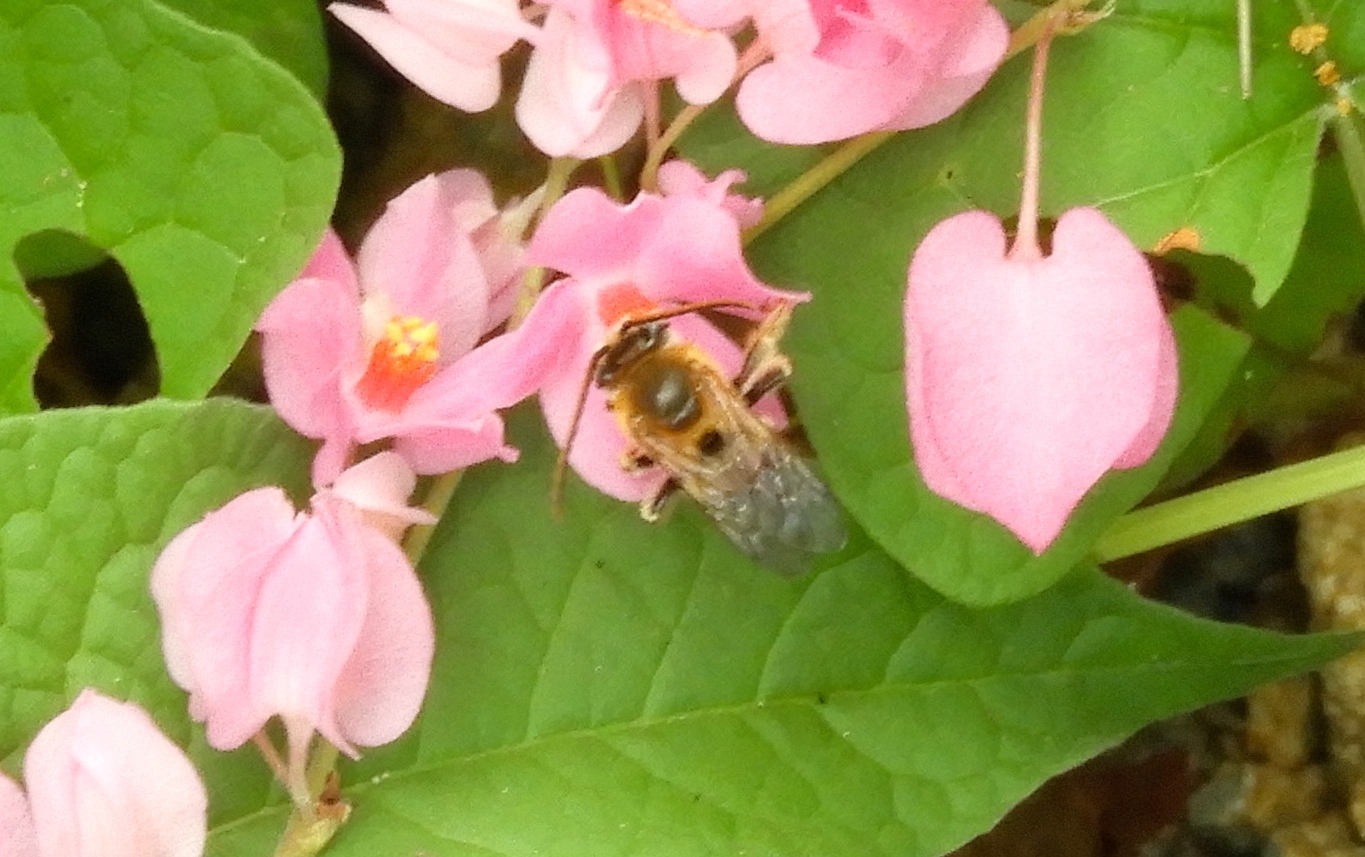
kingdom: Animalia
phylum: Arthropoda
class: Insecta
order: Hymenoptera
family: Apidae
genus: Melissodes
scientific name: Melissodes
